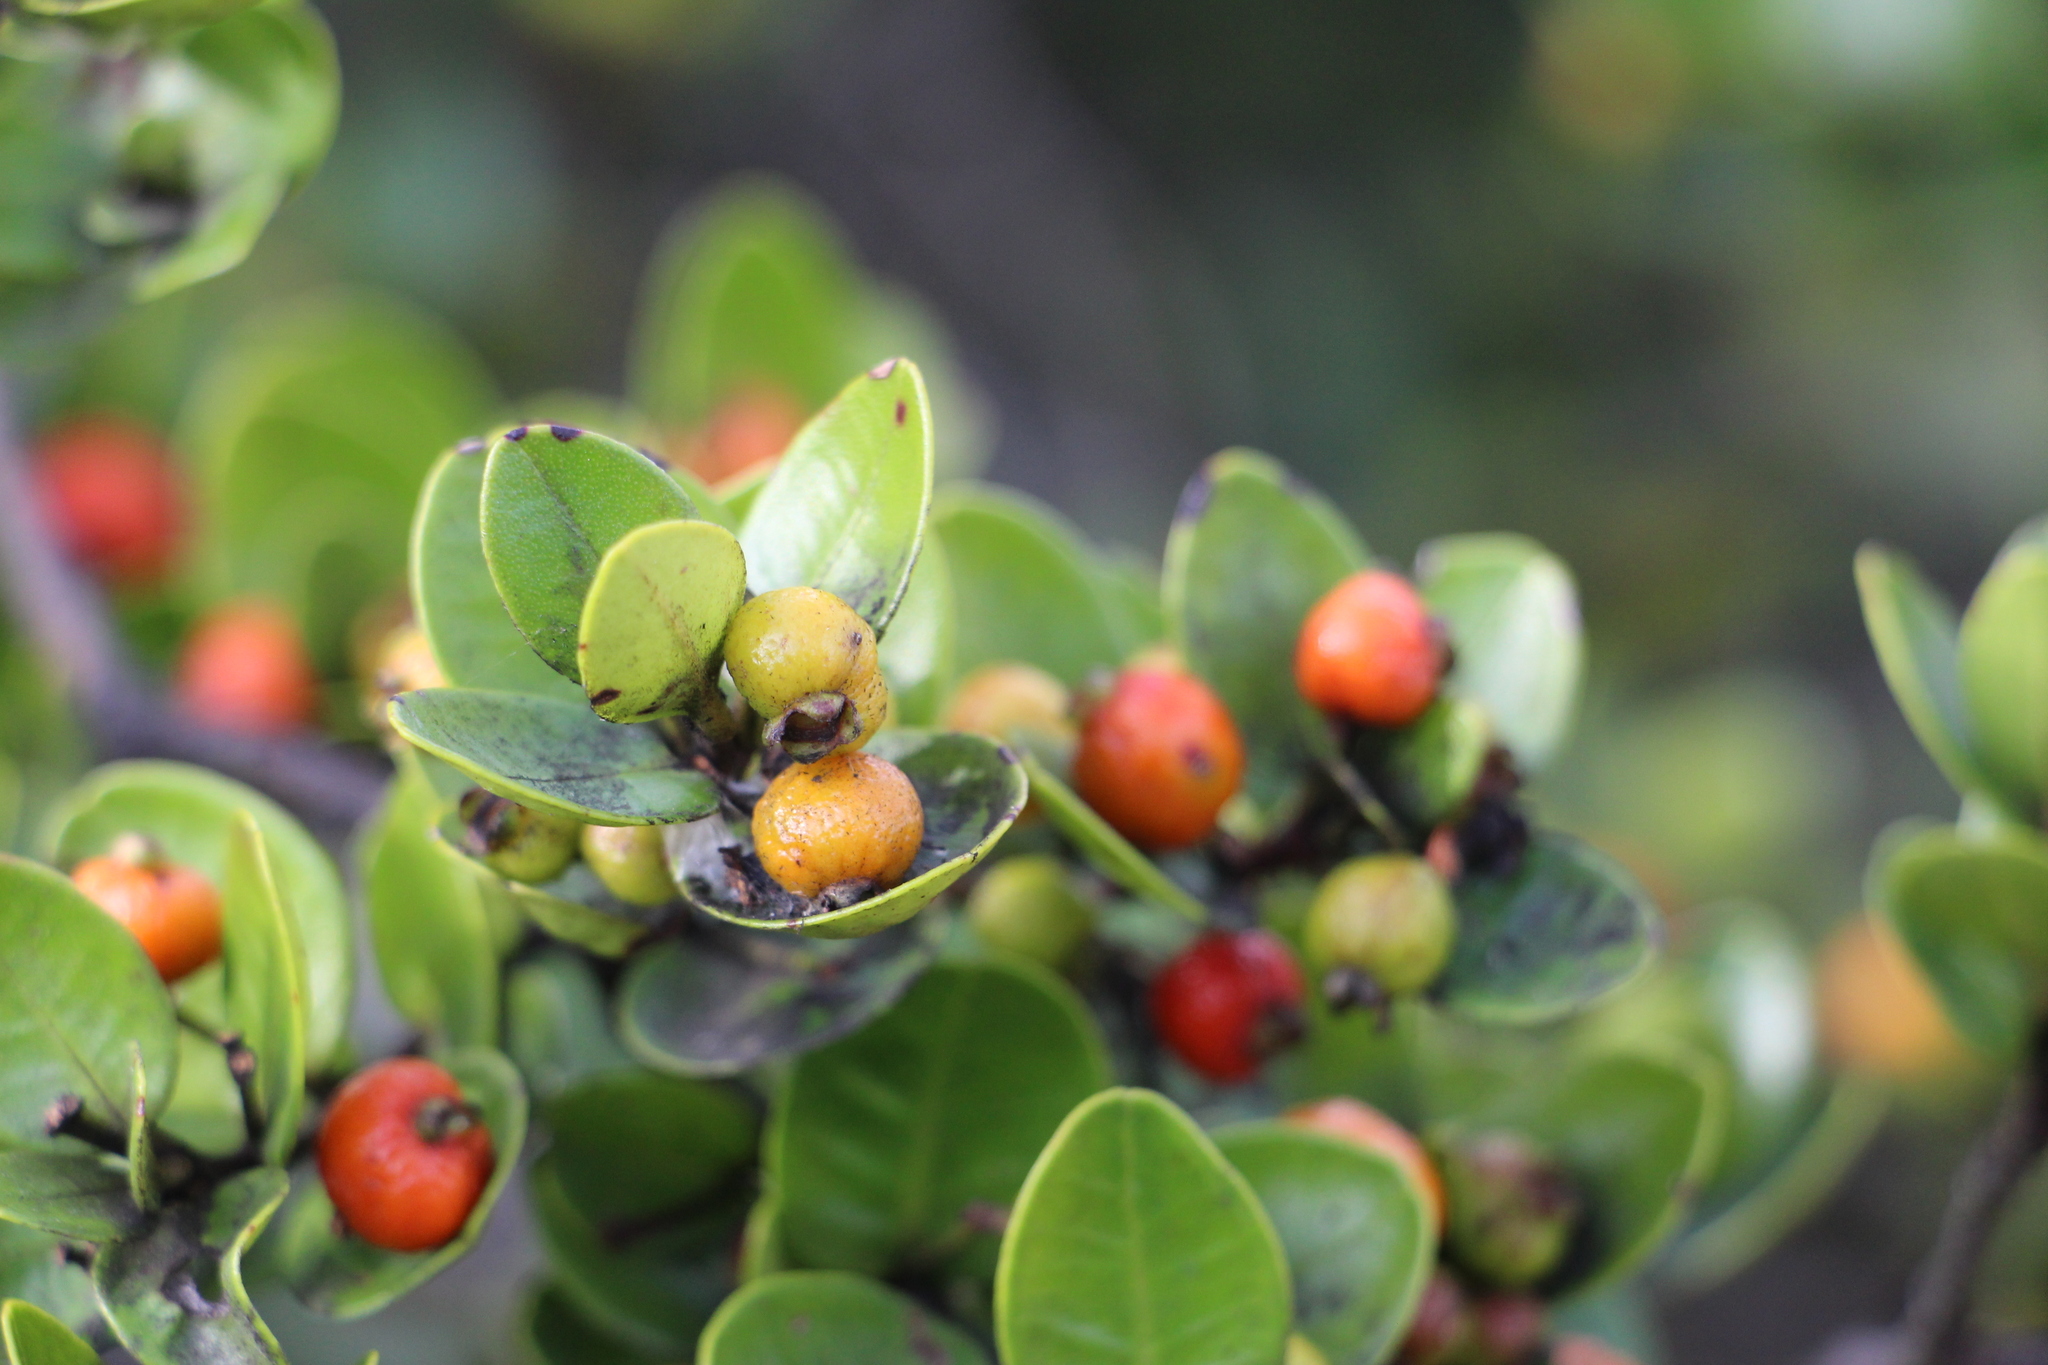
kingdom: Plantae
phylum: Tracheophyta
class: Magnoliopsida
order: Myrtales
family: Myrtaceae
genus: Myrcianthes
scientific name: Myrcianthes leucoxyla
